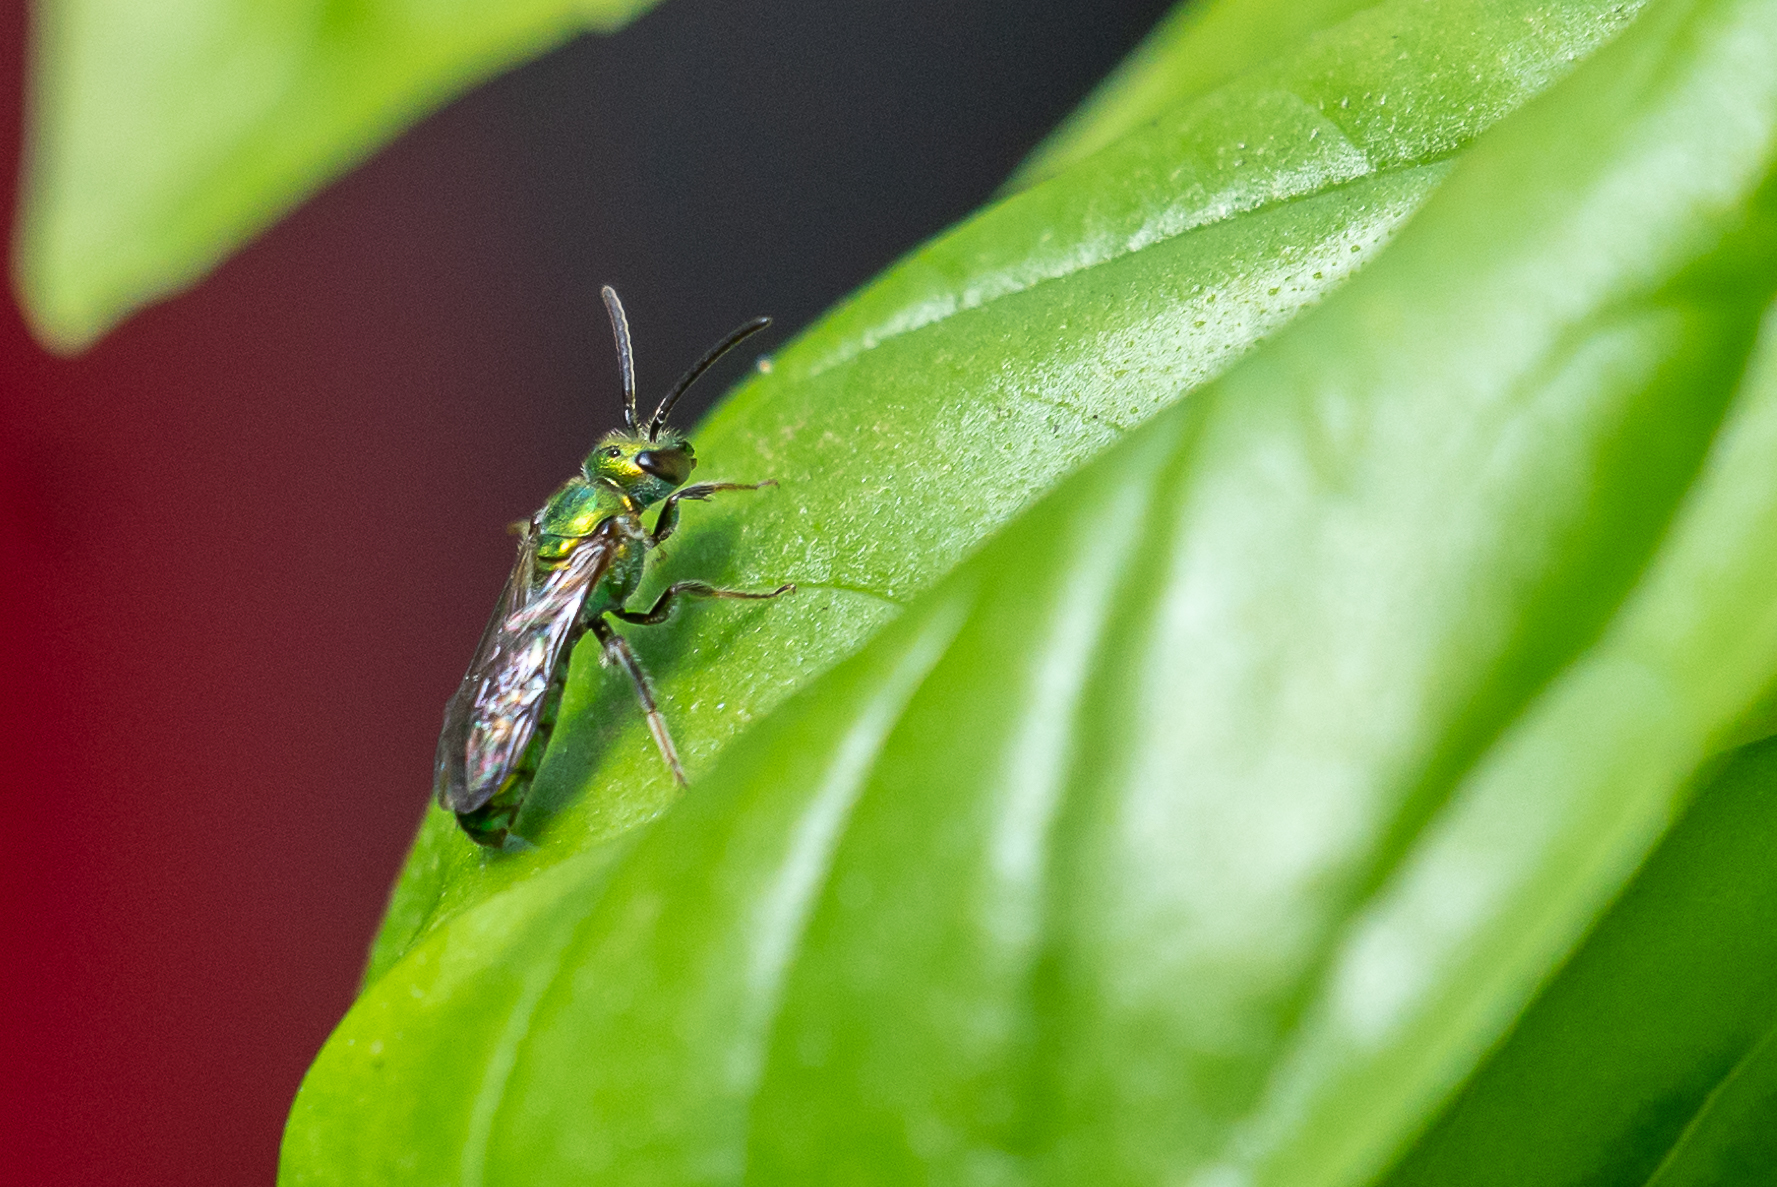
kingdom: Animalia
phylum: Arthropoda
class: Insecta
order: Hymenoptera
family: Halictidae
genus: Augochlora
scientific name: Augochlora pura
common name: Pure green sweat bee
